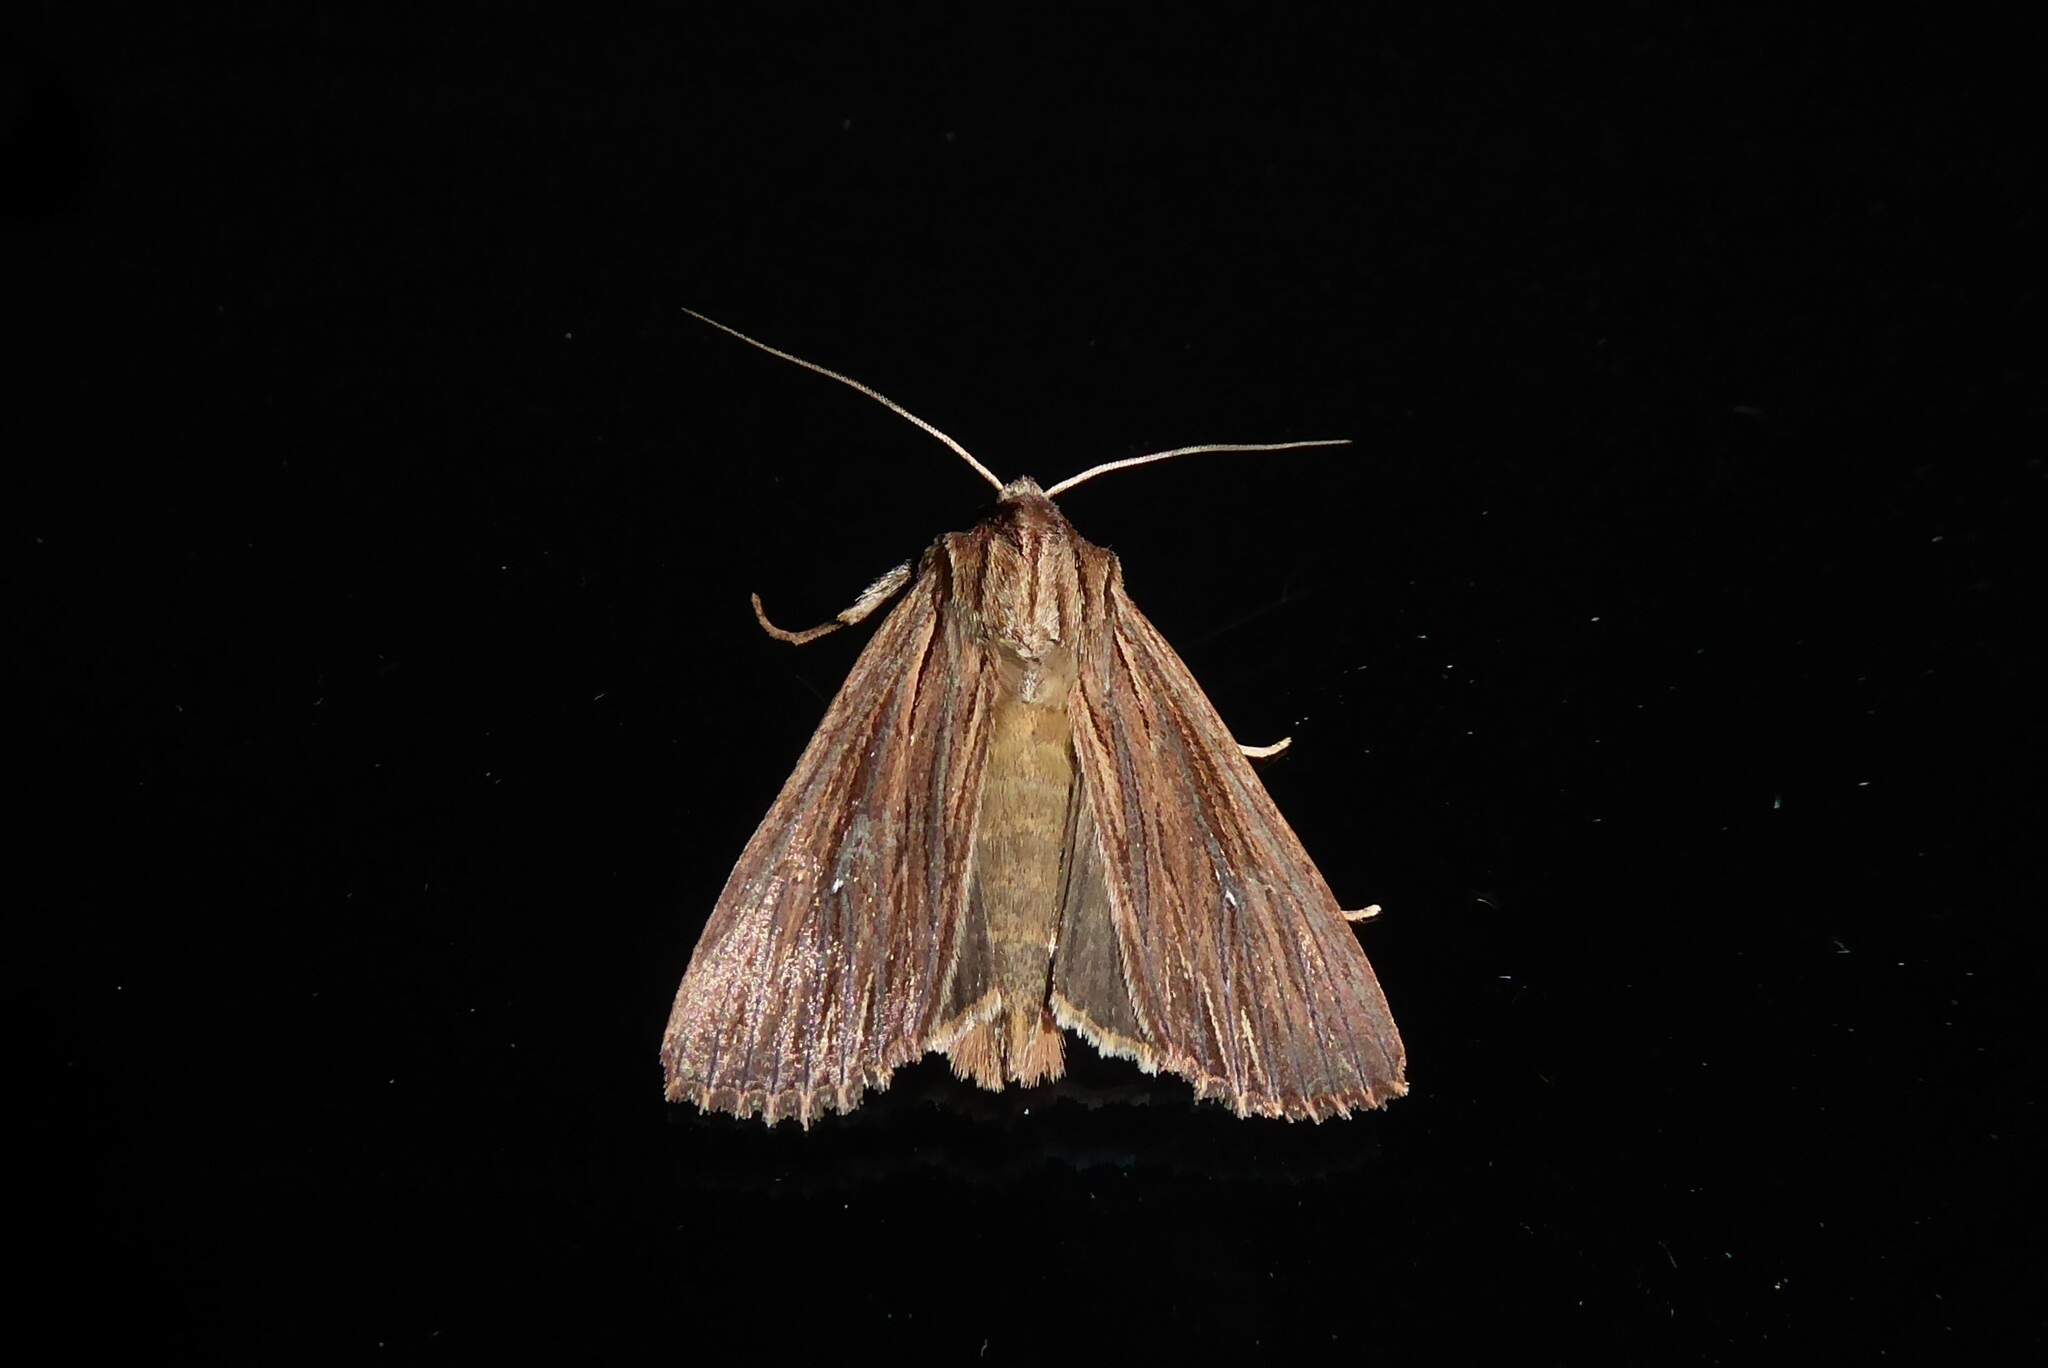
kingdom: Animalia
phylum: Arthropoda
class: Insecta
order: Lepidoptera
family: Noctuidae
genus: Ichneutica
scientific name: Ichneutica
